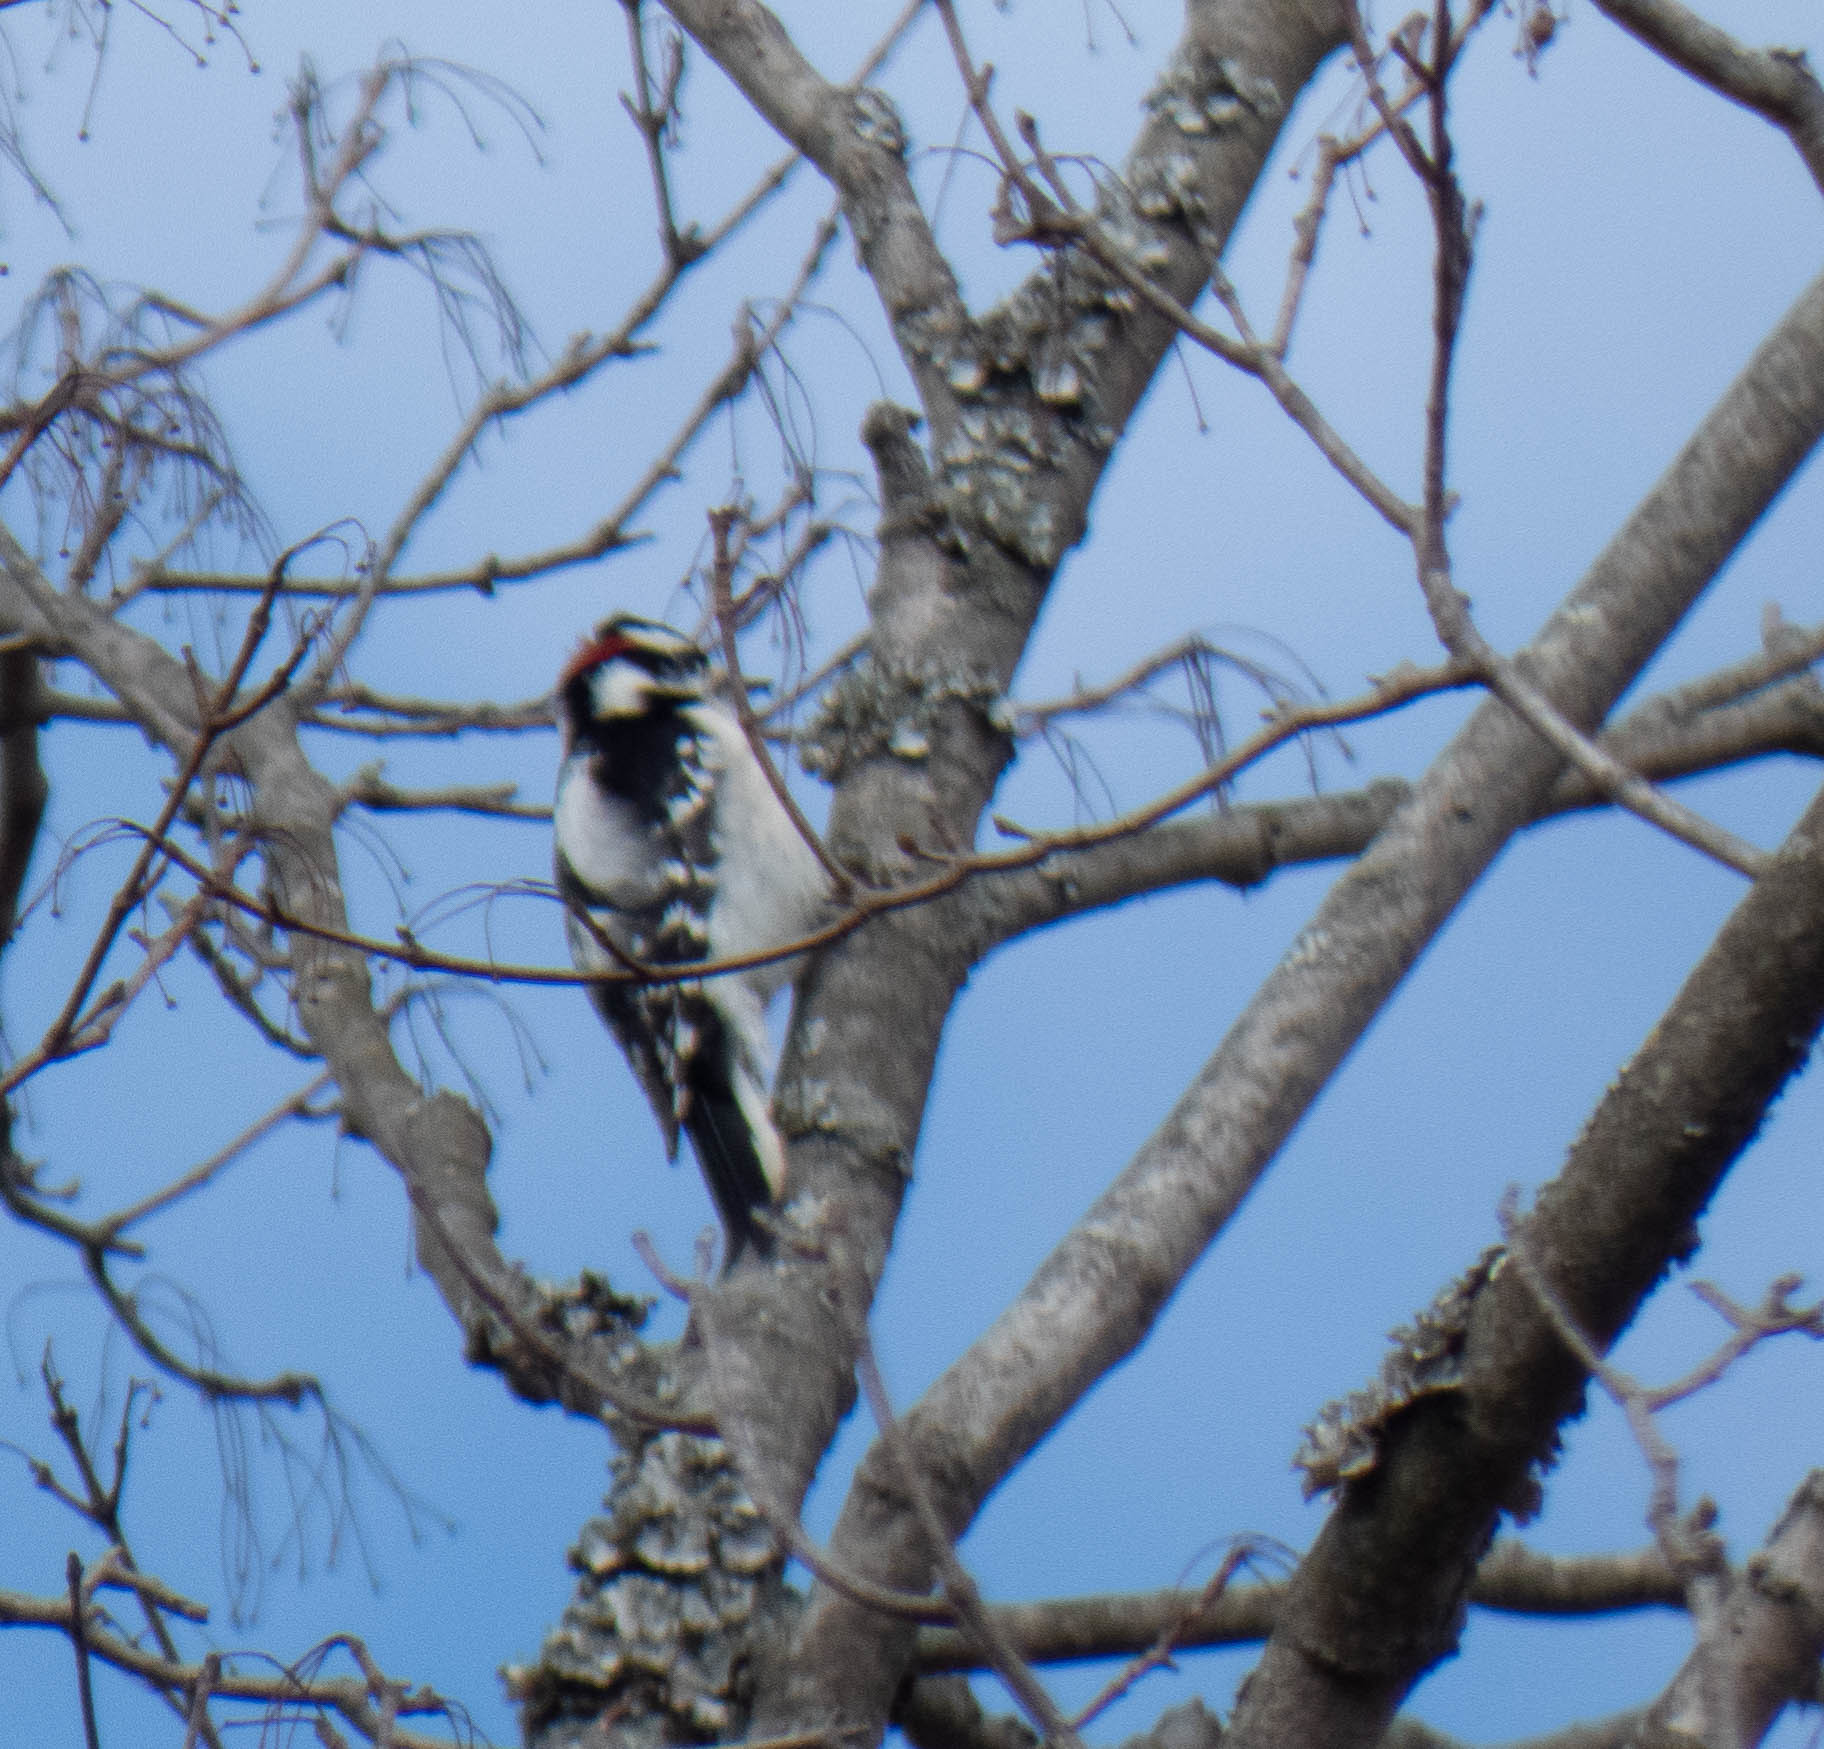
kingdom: Animalia
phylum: Chordata
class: Aves
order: Piciformes
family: Picidae
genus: Dryobates
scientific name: Dryobates pubescens
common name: Downy woodpecker
